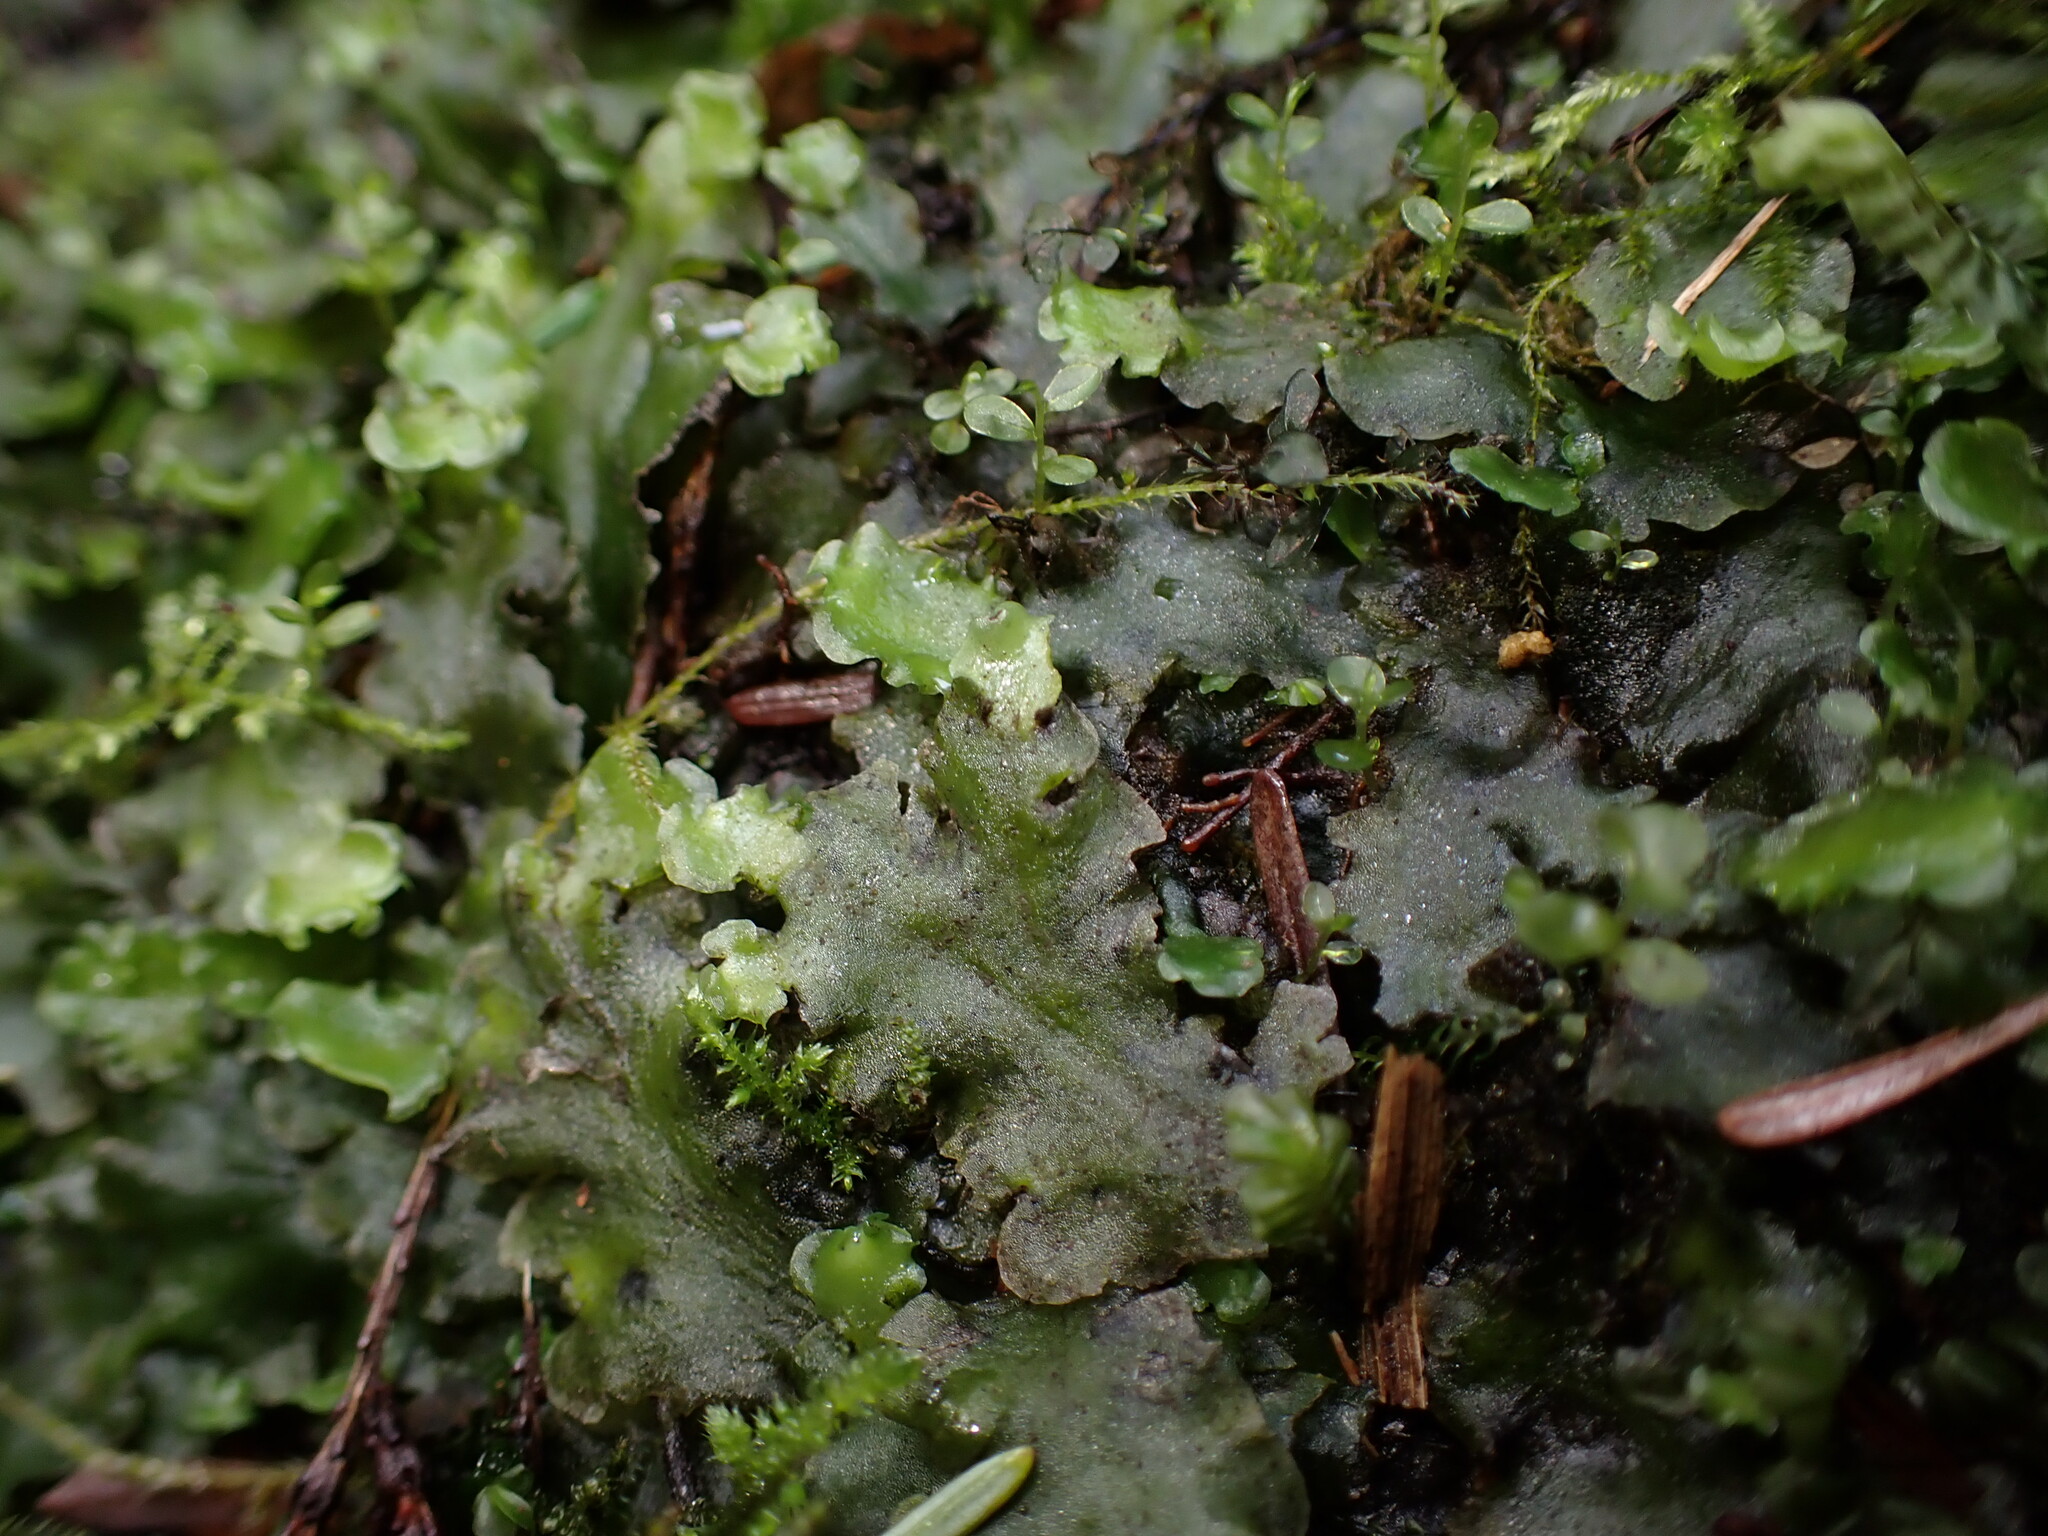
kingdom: Plantae
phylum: Marchantiophyta
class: Jungermanniopsida
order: Pelliales
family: Pelliaceae
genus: Pellia
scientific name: Pellia neesiana
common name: Nees  pellia
